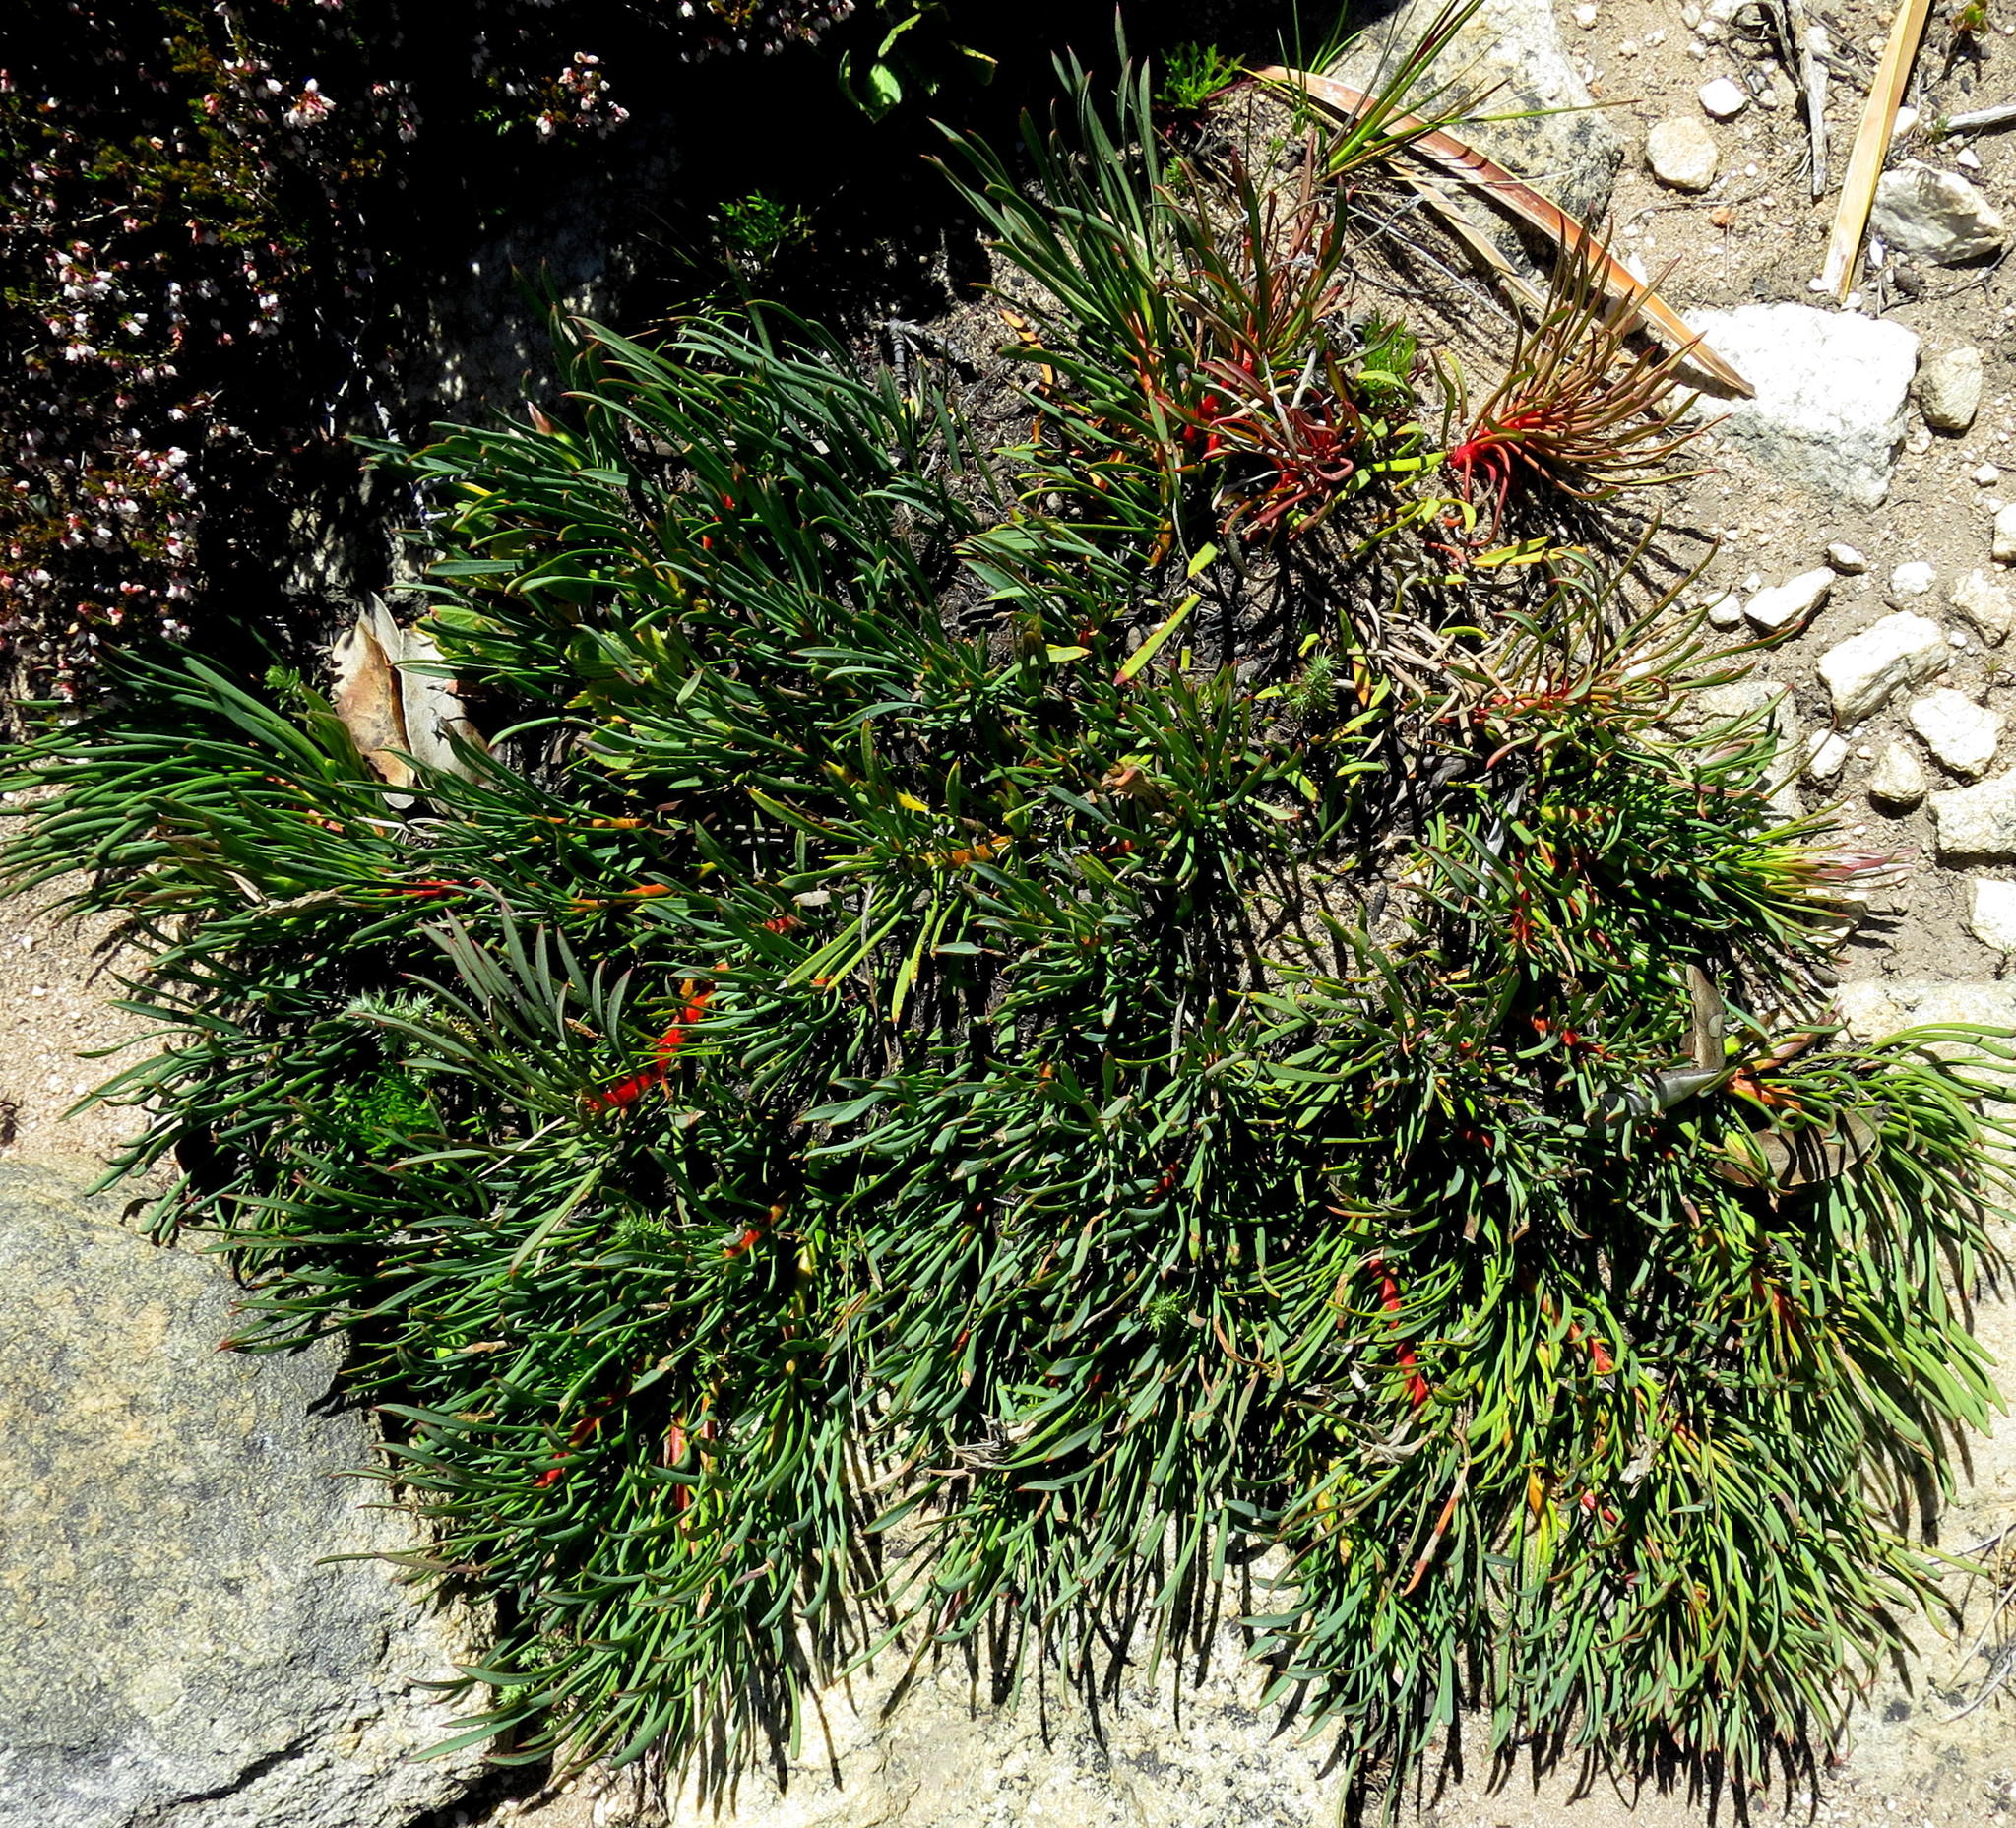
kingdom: Plantae
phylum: Tracheophyta
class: Magnoliopsida
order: Proteales
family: Proteaceae
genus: Protea
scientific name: Protea montana
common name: Swartberg sugarbush
